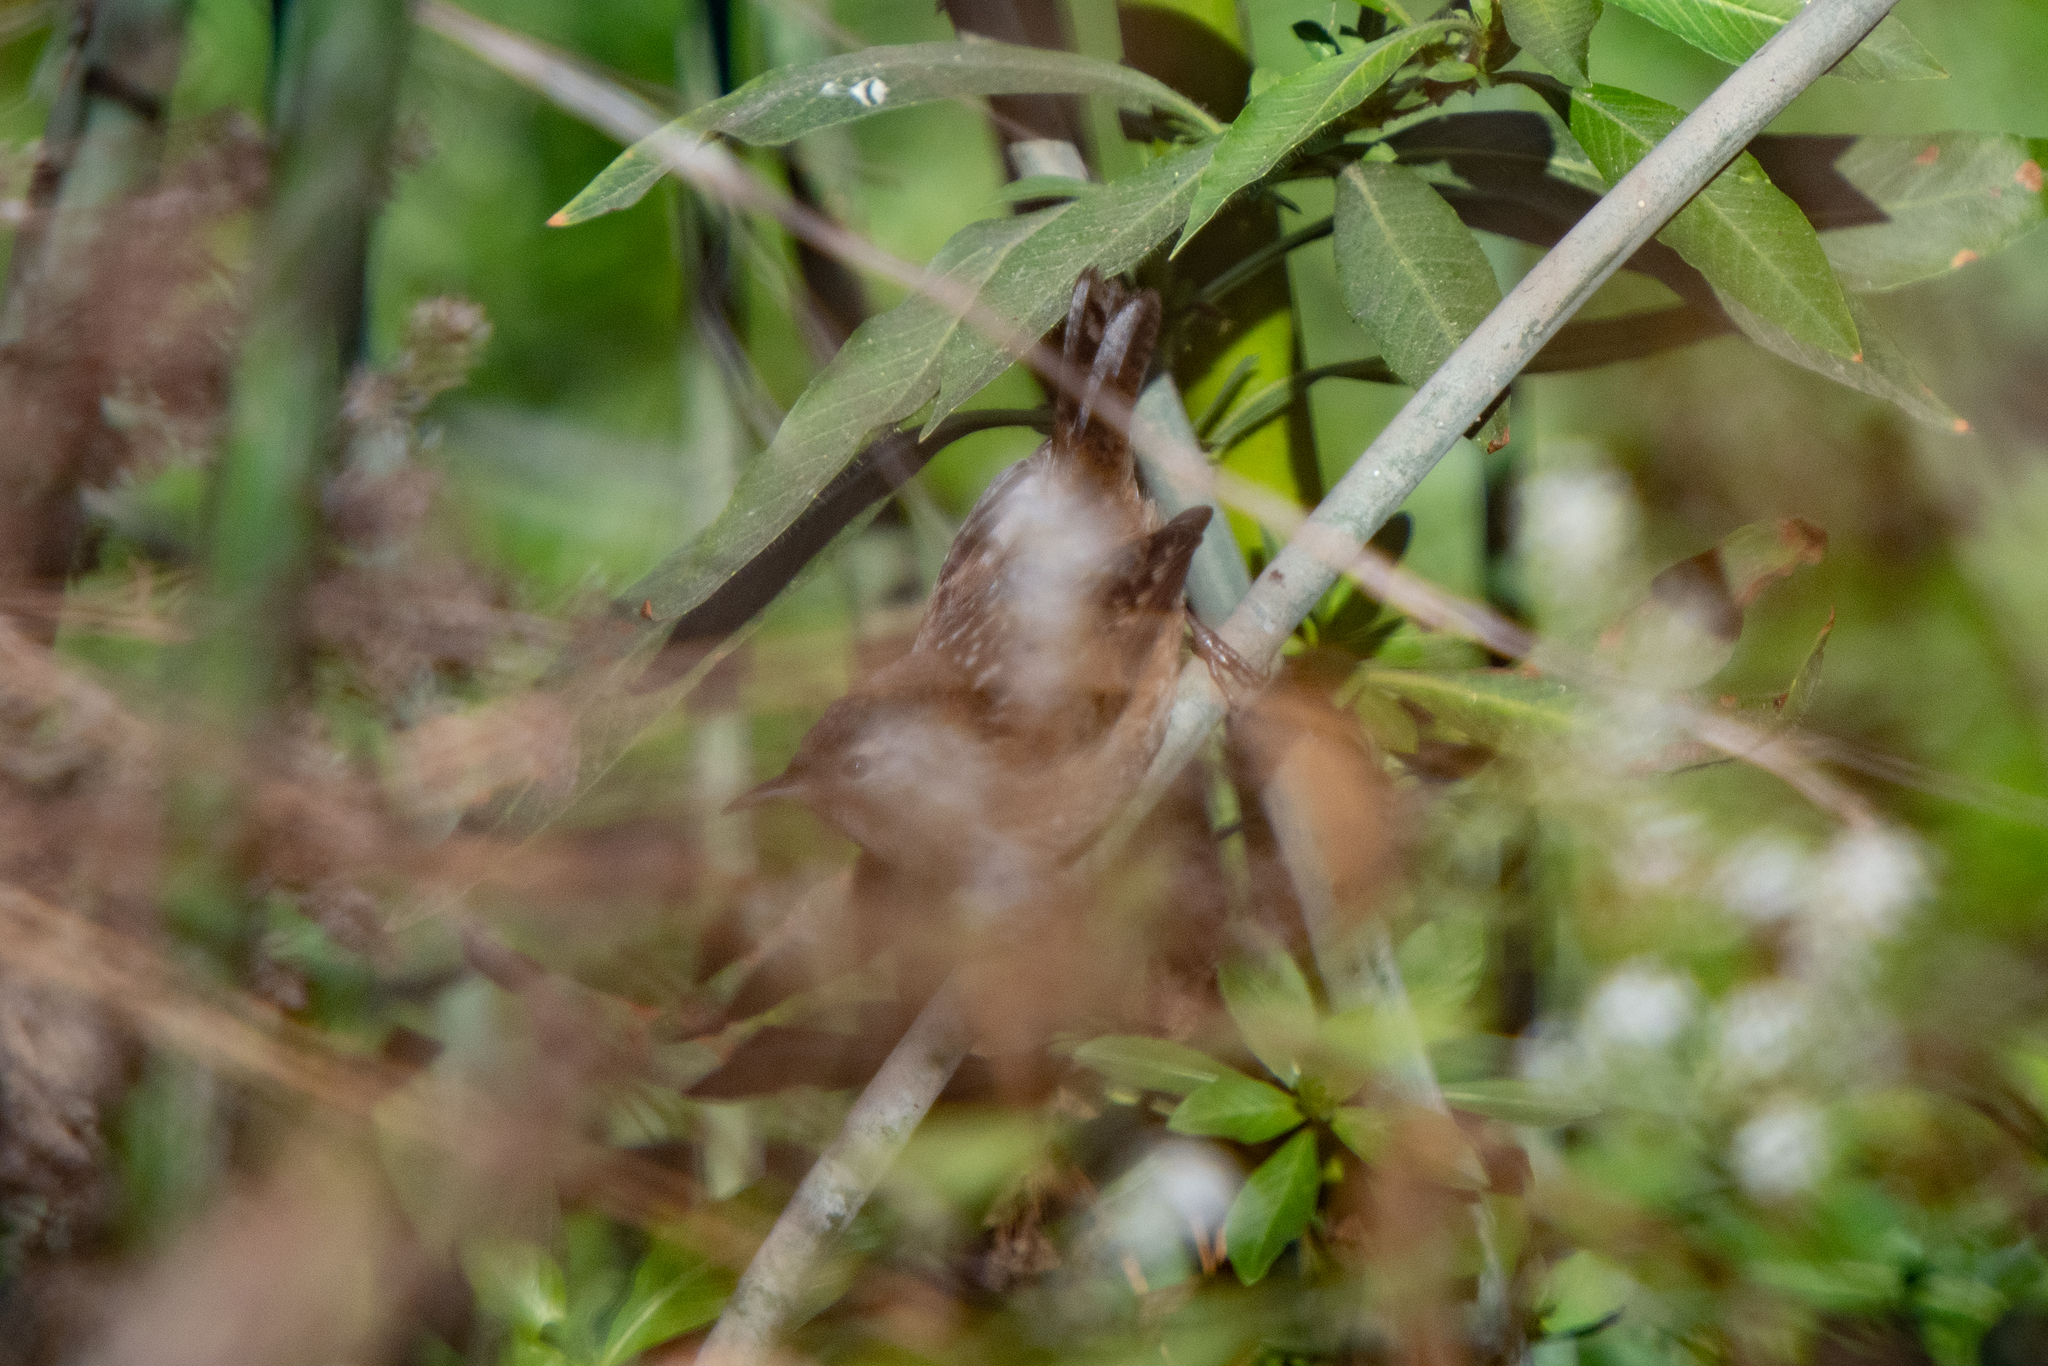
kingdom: Animalia
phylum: Chordata
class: Aves
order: Passeriformes
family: Troglodytidae
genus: Cistothorus
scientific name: Cistothorus palustris
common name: Marsh wren
